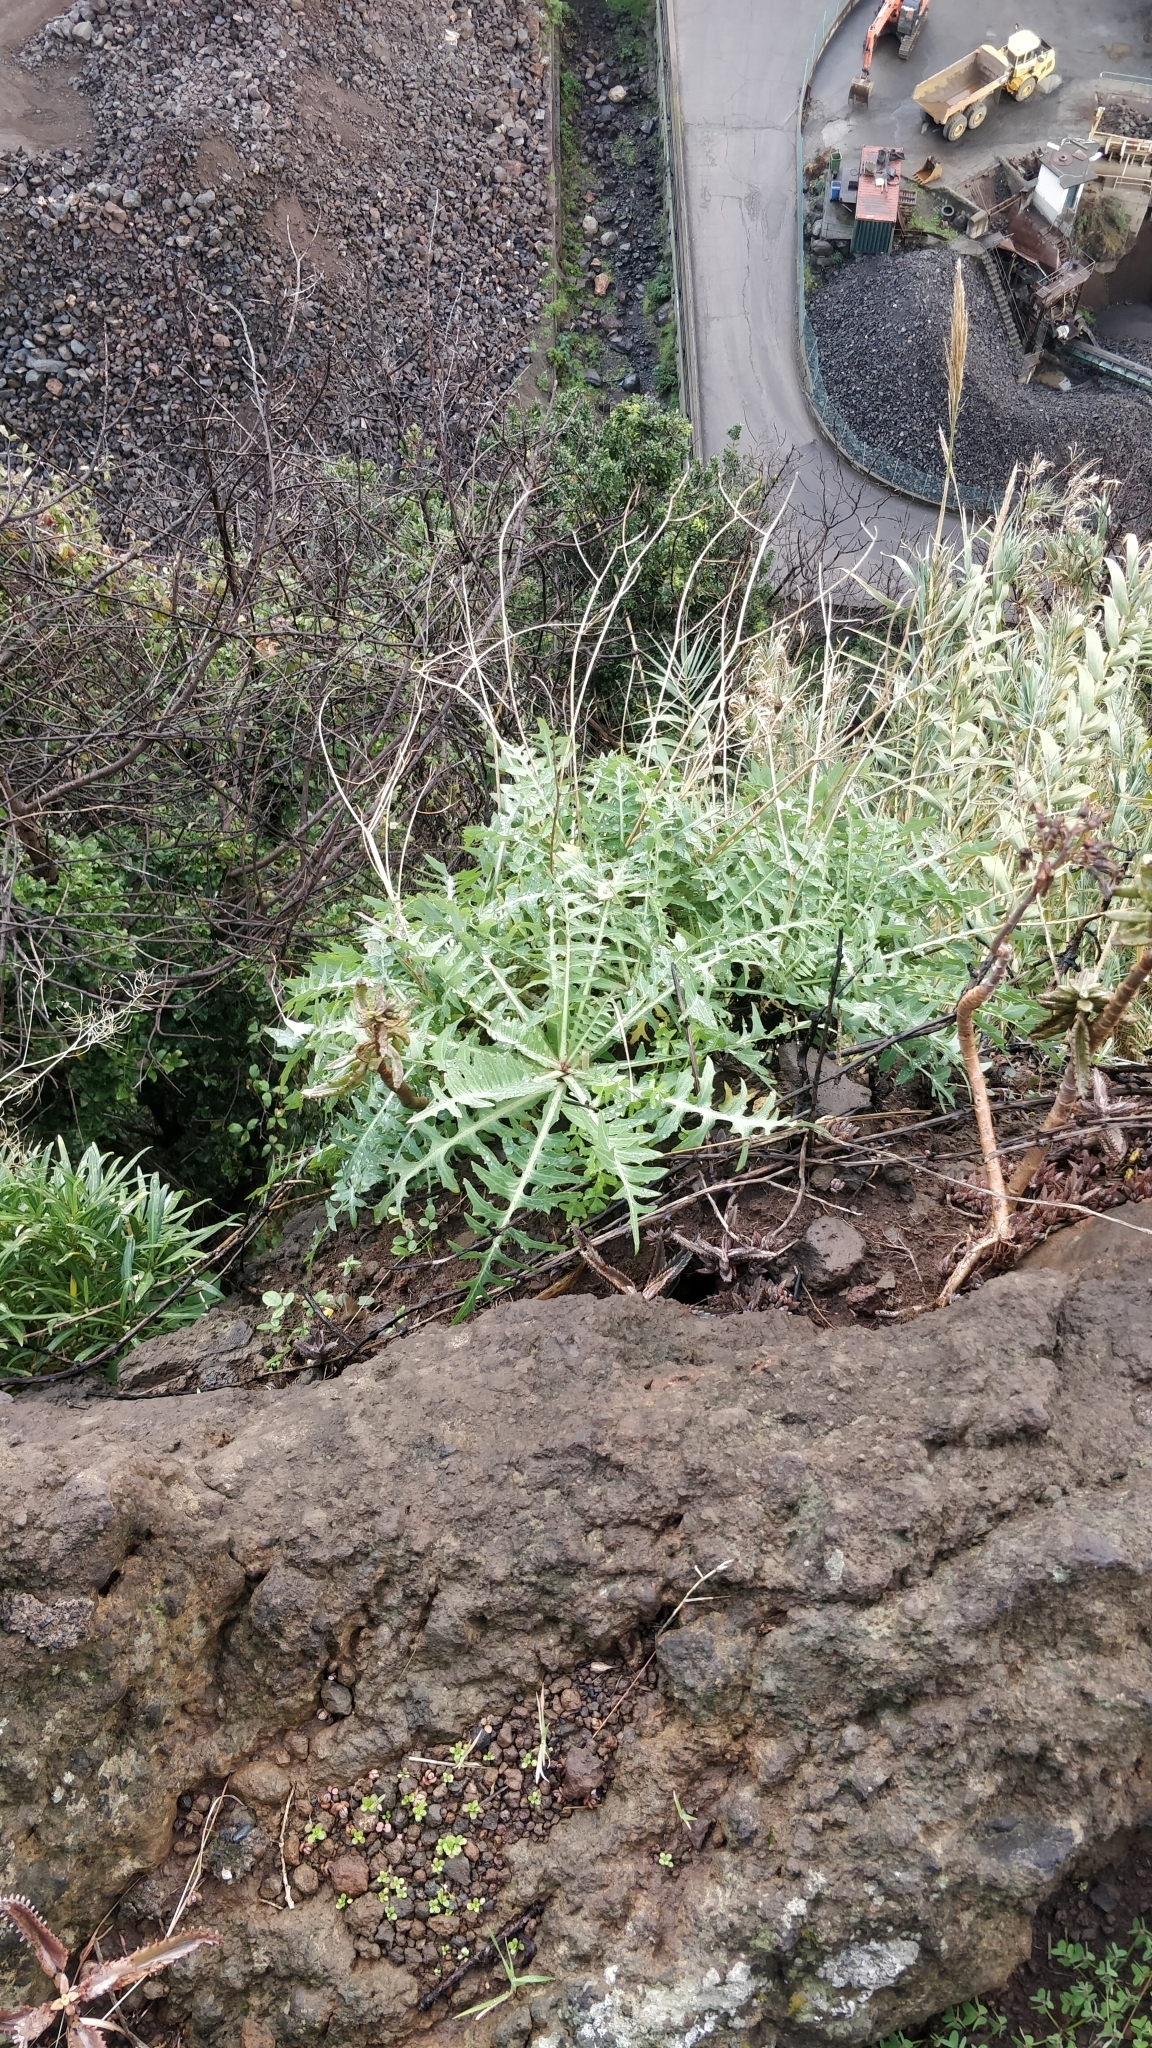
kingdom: Plantae
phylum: Tracheophyta
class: Magnoliopsida
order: Asterales
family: Asteraceae
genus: Sonchus
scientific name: Sonchus ustulatus
